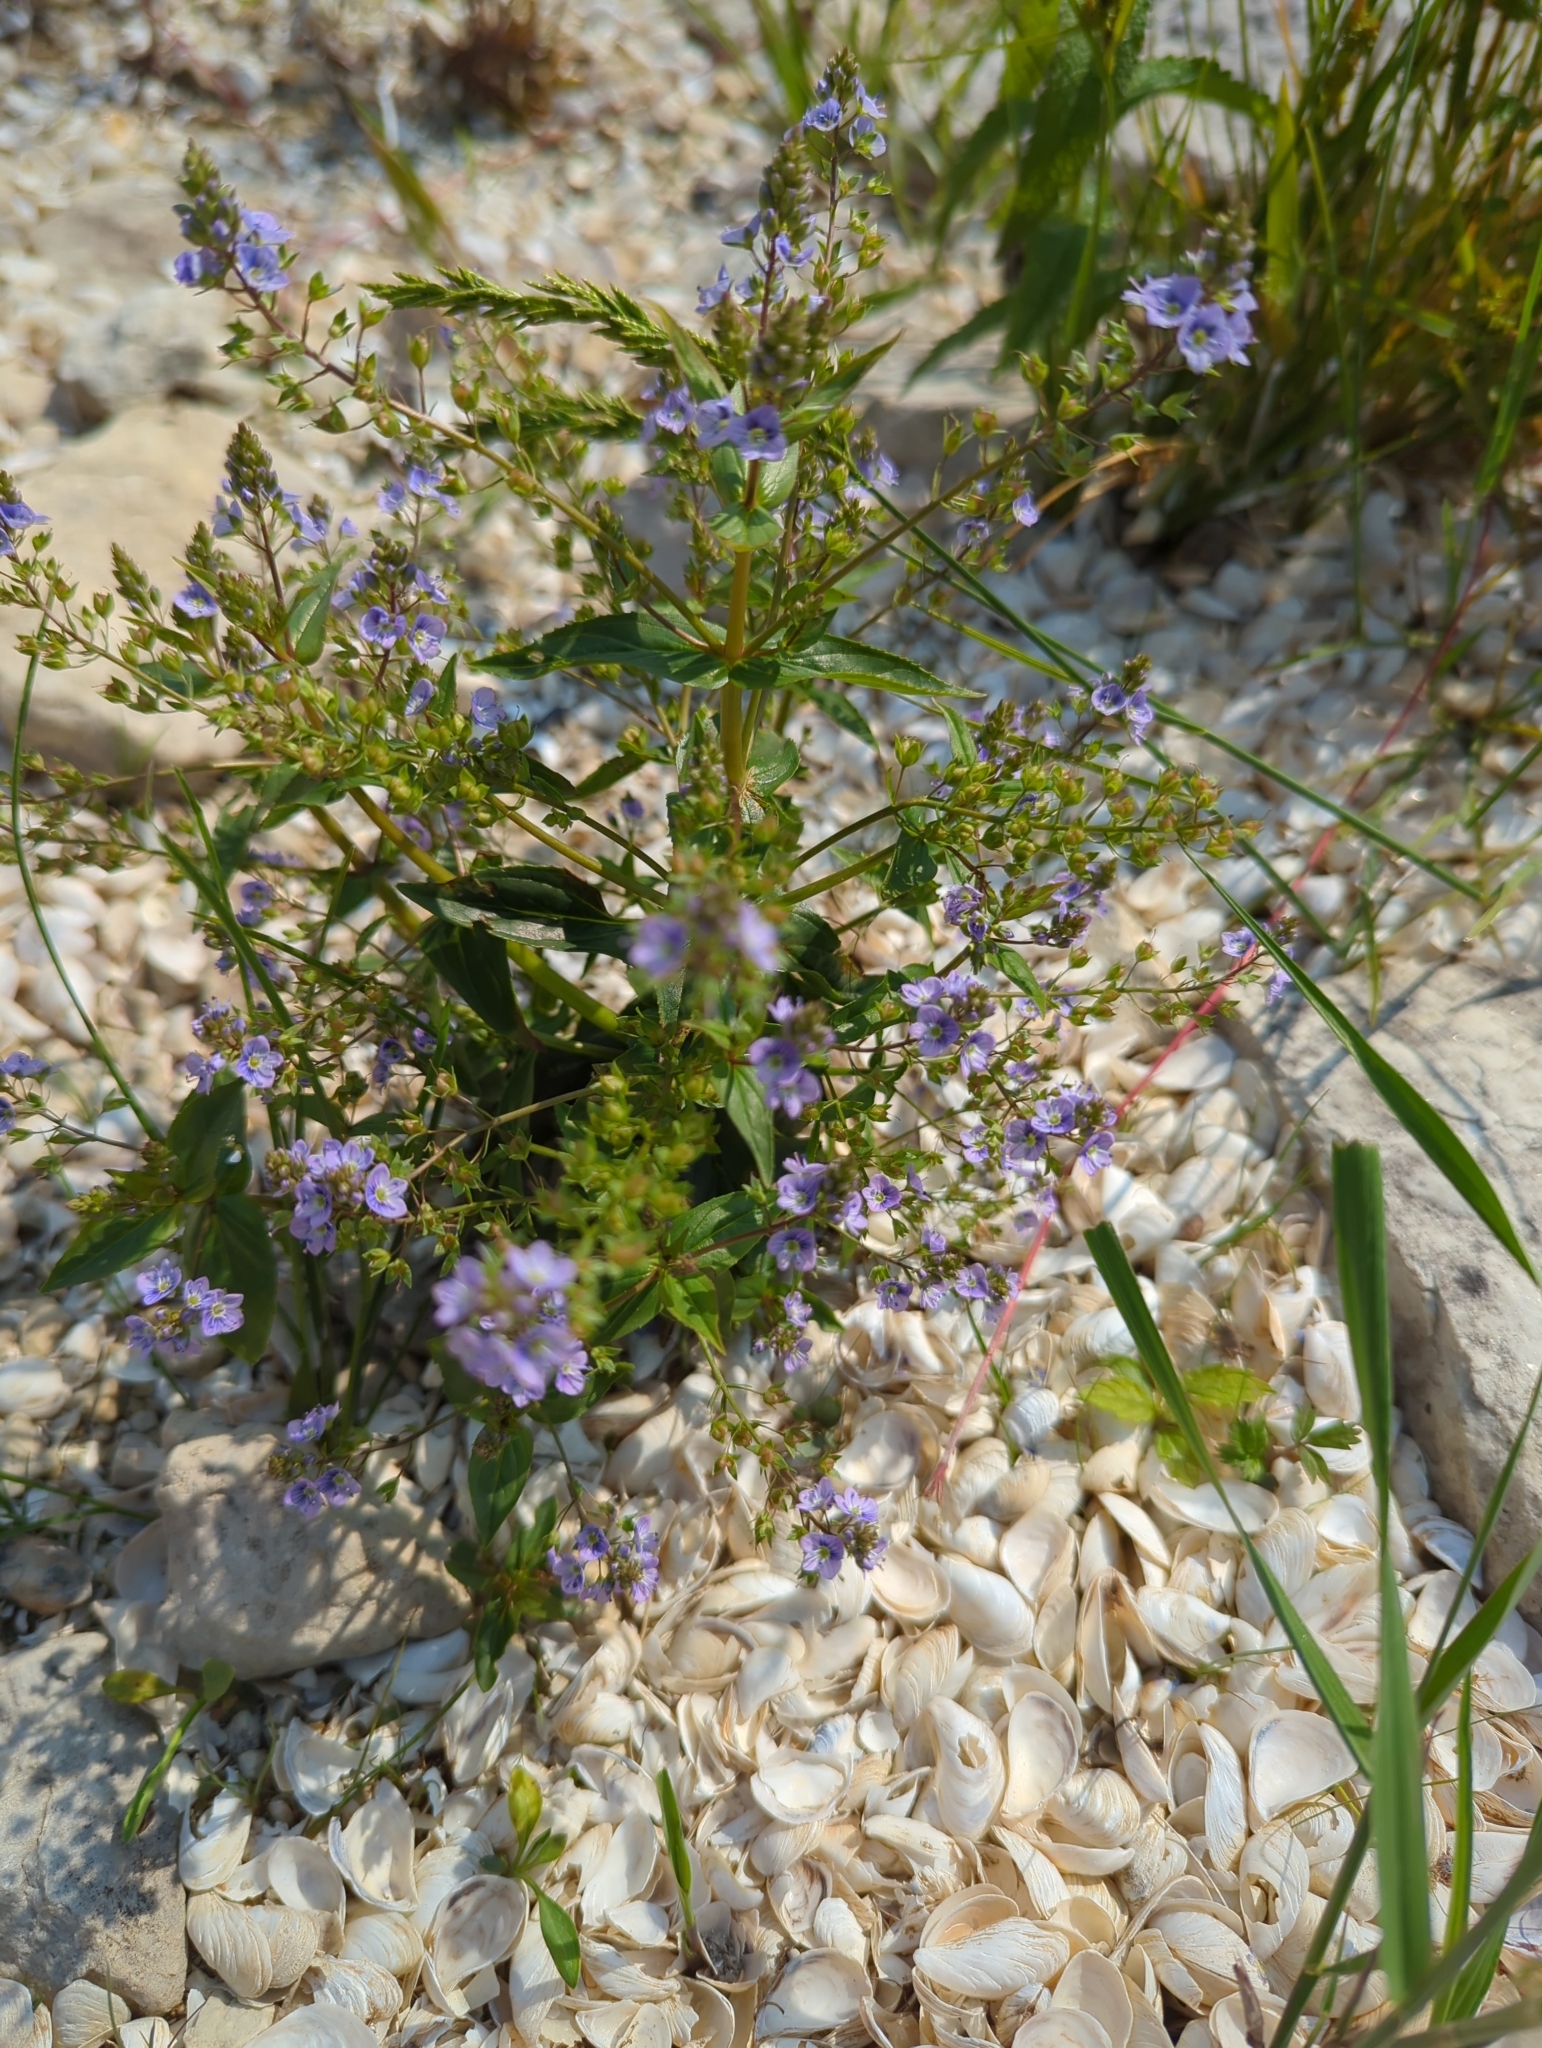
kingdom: Plantae
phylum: Tracheophyta
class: Magnoliopsida
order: Lamiales
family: Plantaginaceae
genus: Veronica
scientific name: Veronica anagallis-aquatica
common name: Water speedwell
